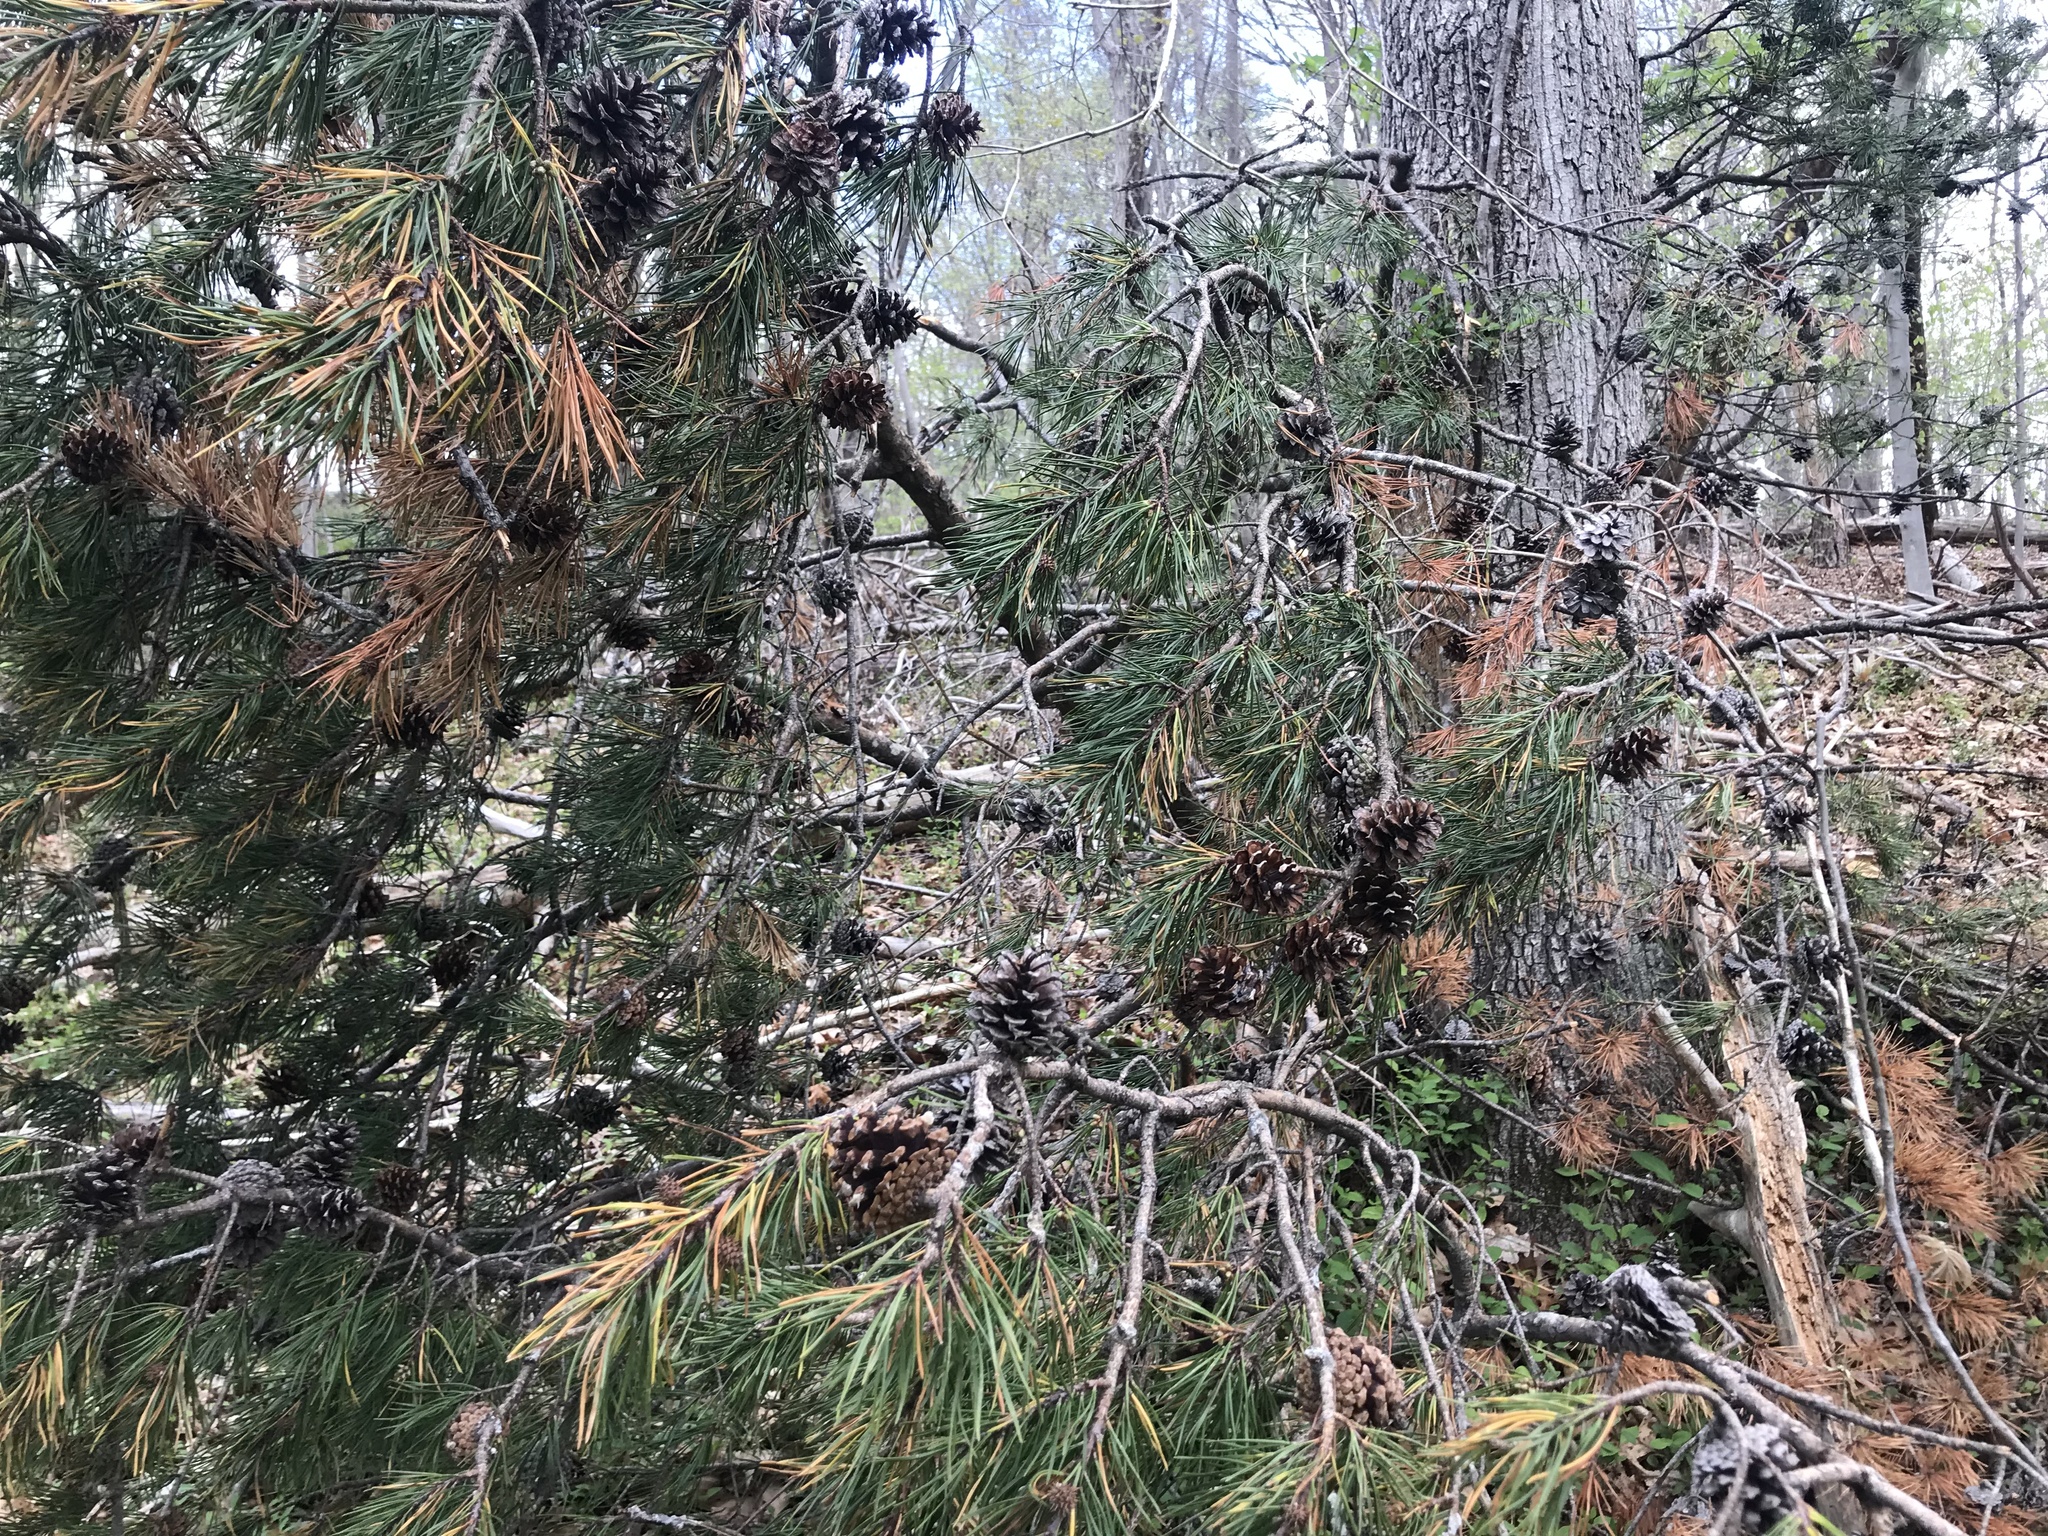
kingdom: Plantae
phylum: Tracheophyta
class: Pinopsida
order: Pinales
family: Pinaceae
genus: Pinus
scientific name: Pinus virginiana
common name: Scrub pine
